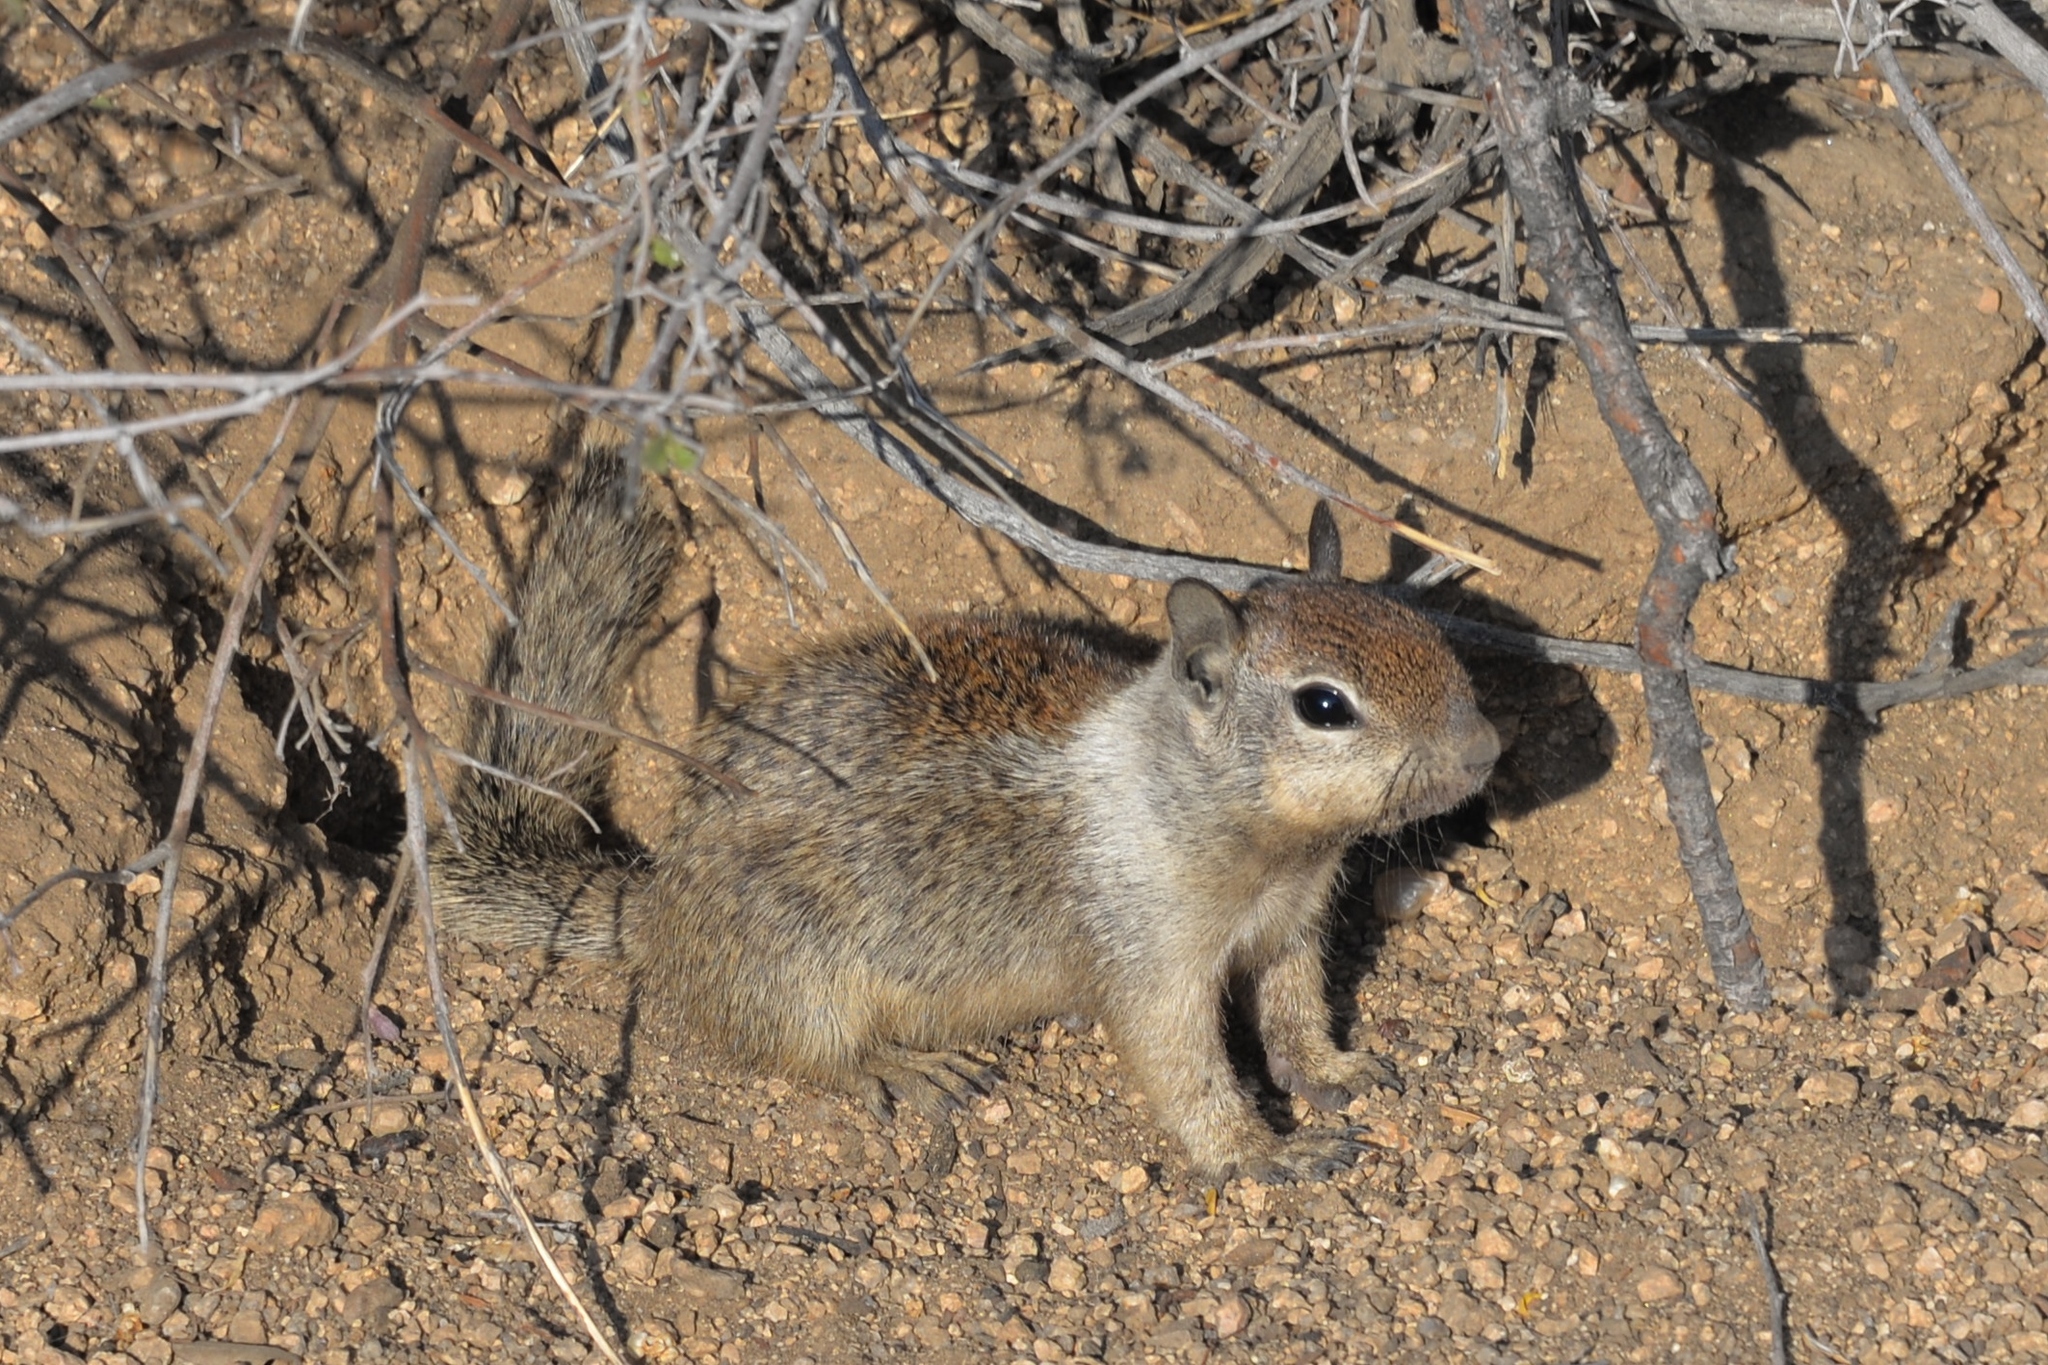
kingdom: Animalia
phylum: Chordata
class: Mammalia
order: Rodentia
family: Sciuridae
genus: Otospermophilus
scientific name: Otospermophilus beecheyi
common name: California ground squirrel
